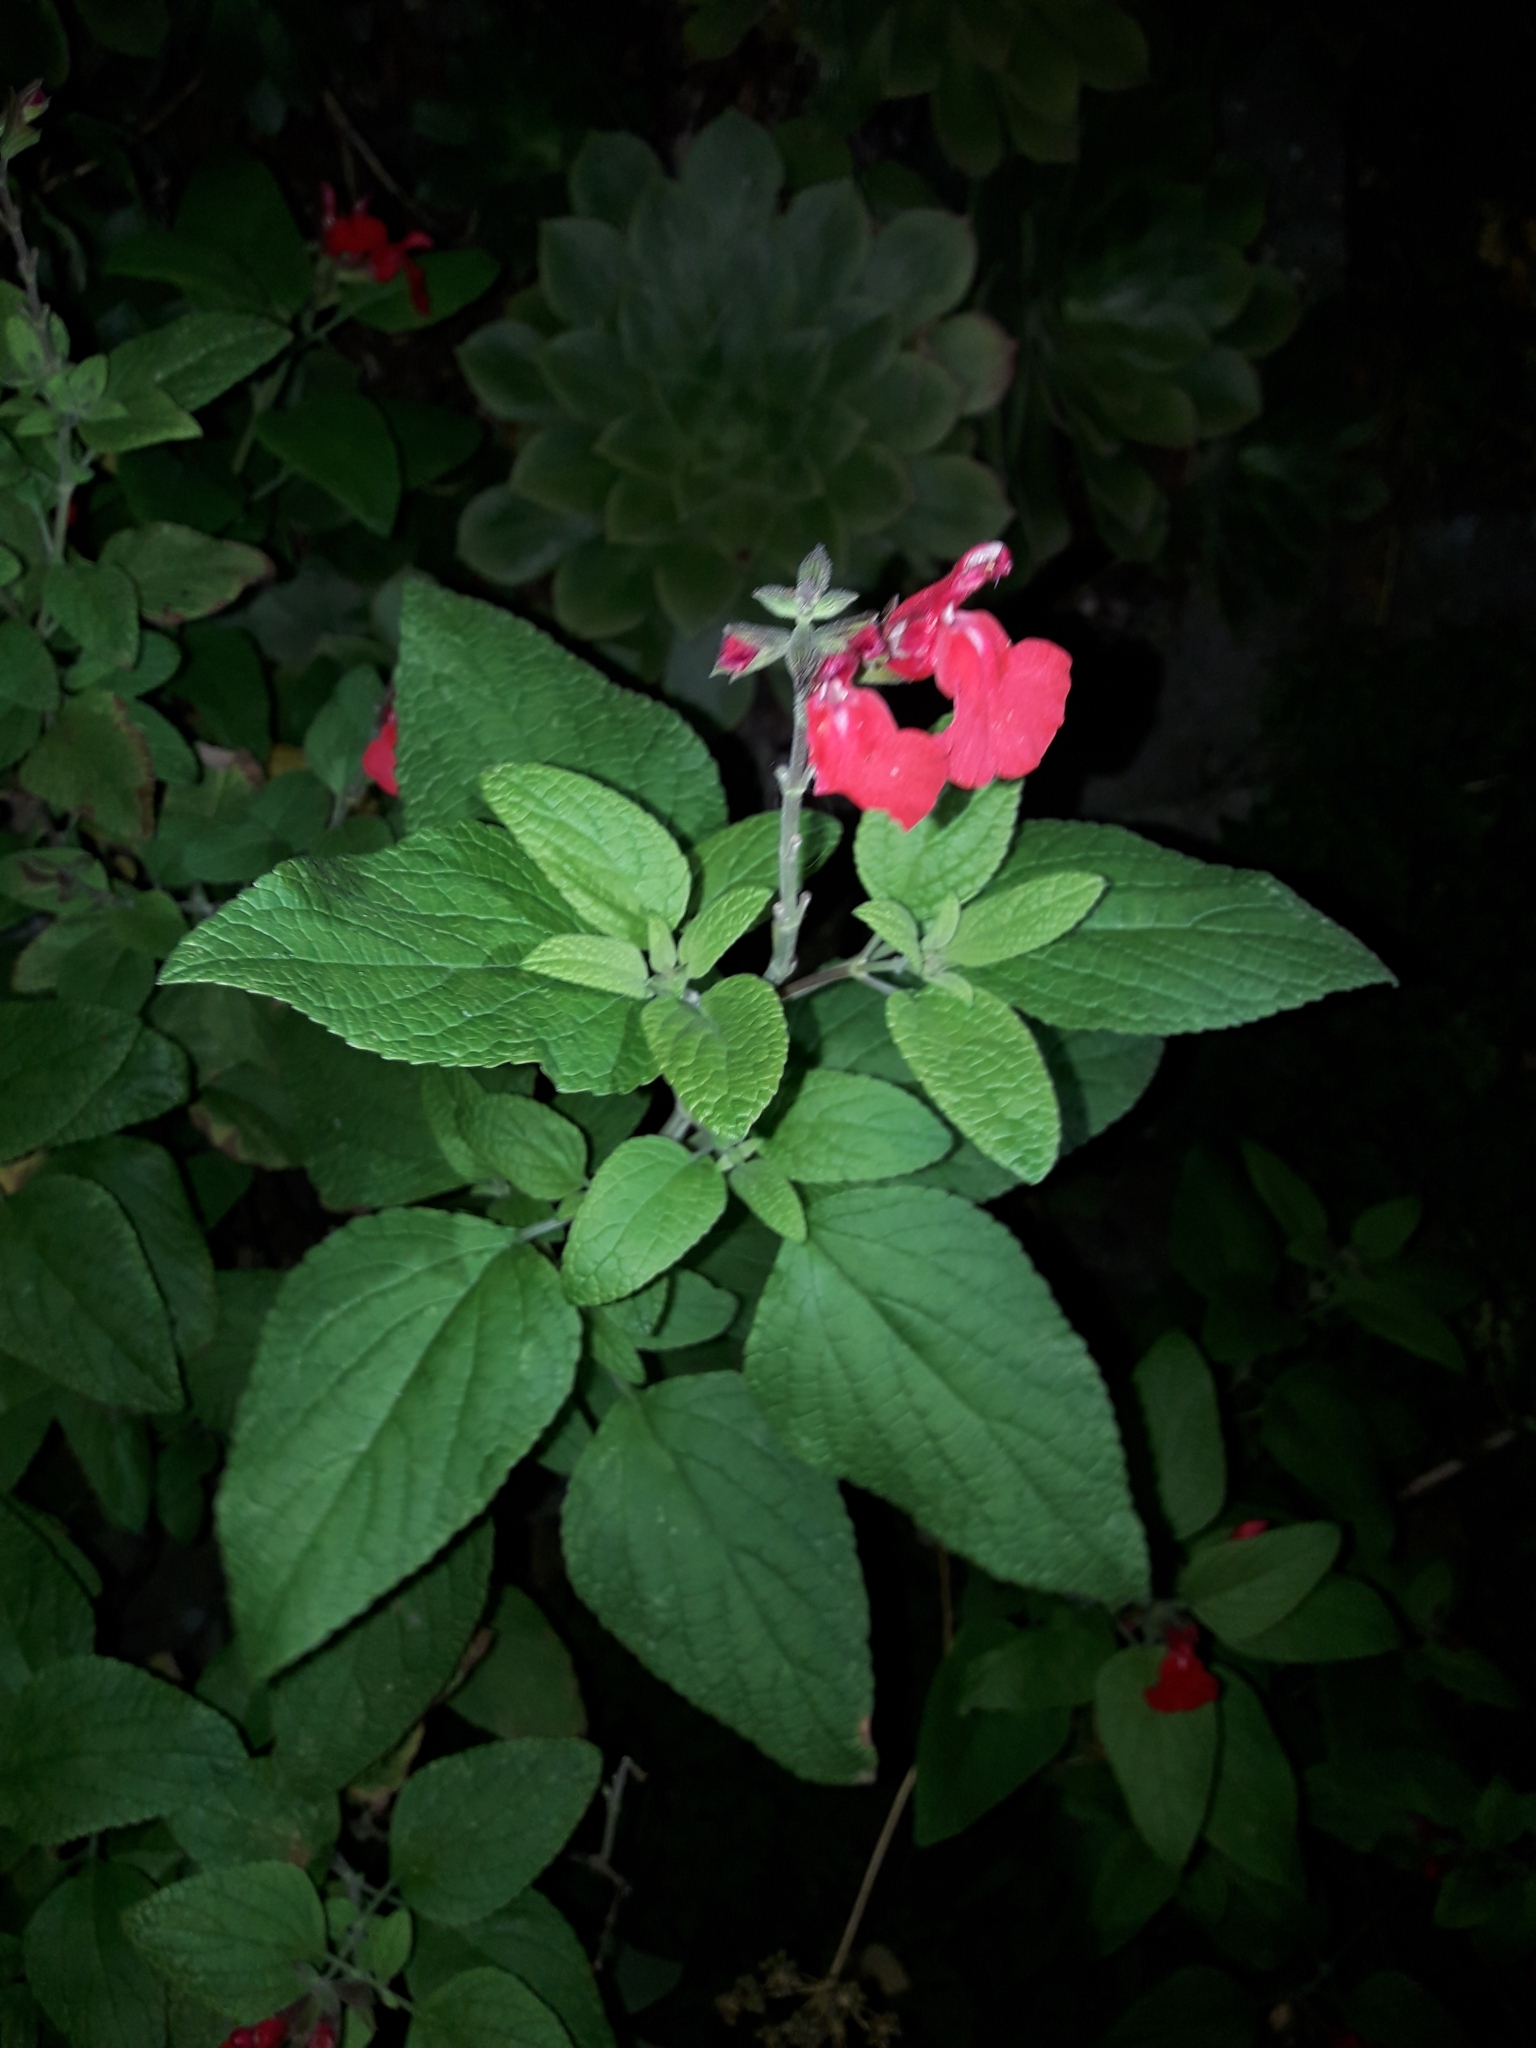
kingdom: Plantae
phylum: Tracheophyta
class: Magnoliopsida
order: Lamiales
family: Lamiaceae
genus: Salvia
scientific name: Salvia microphylla
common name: Baby sage
